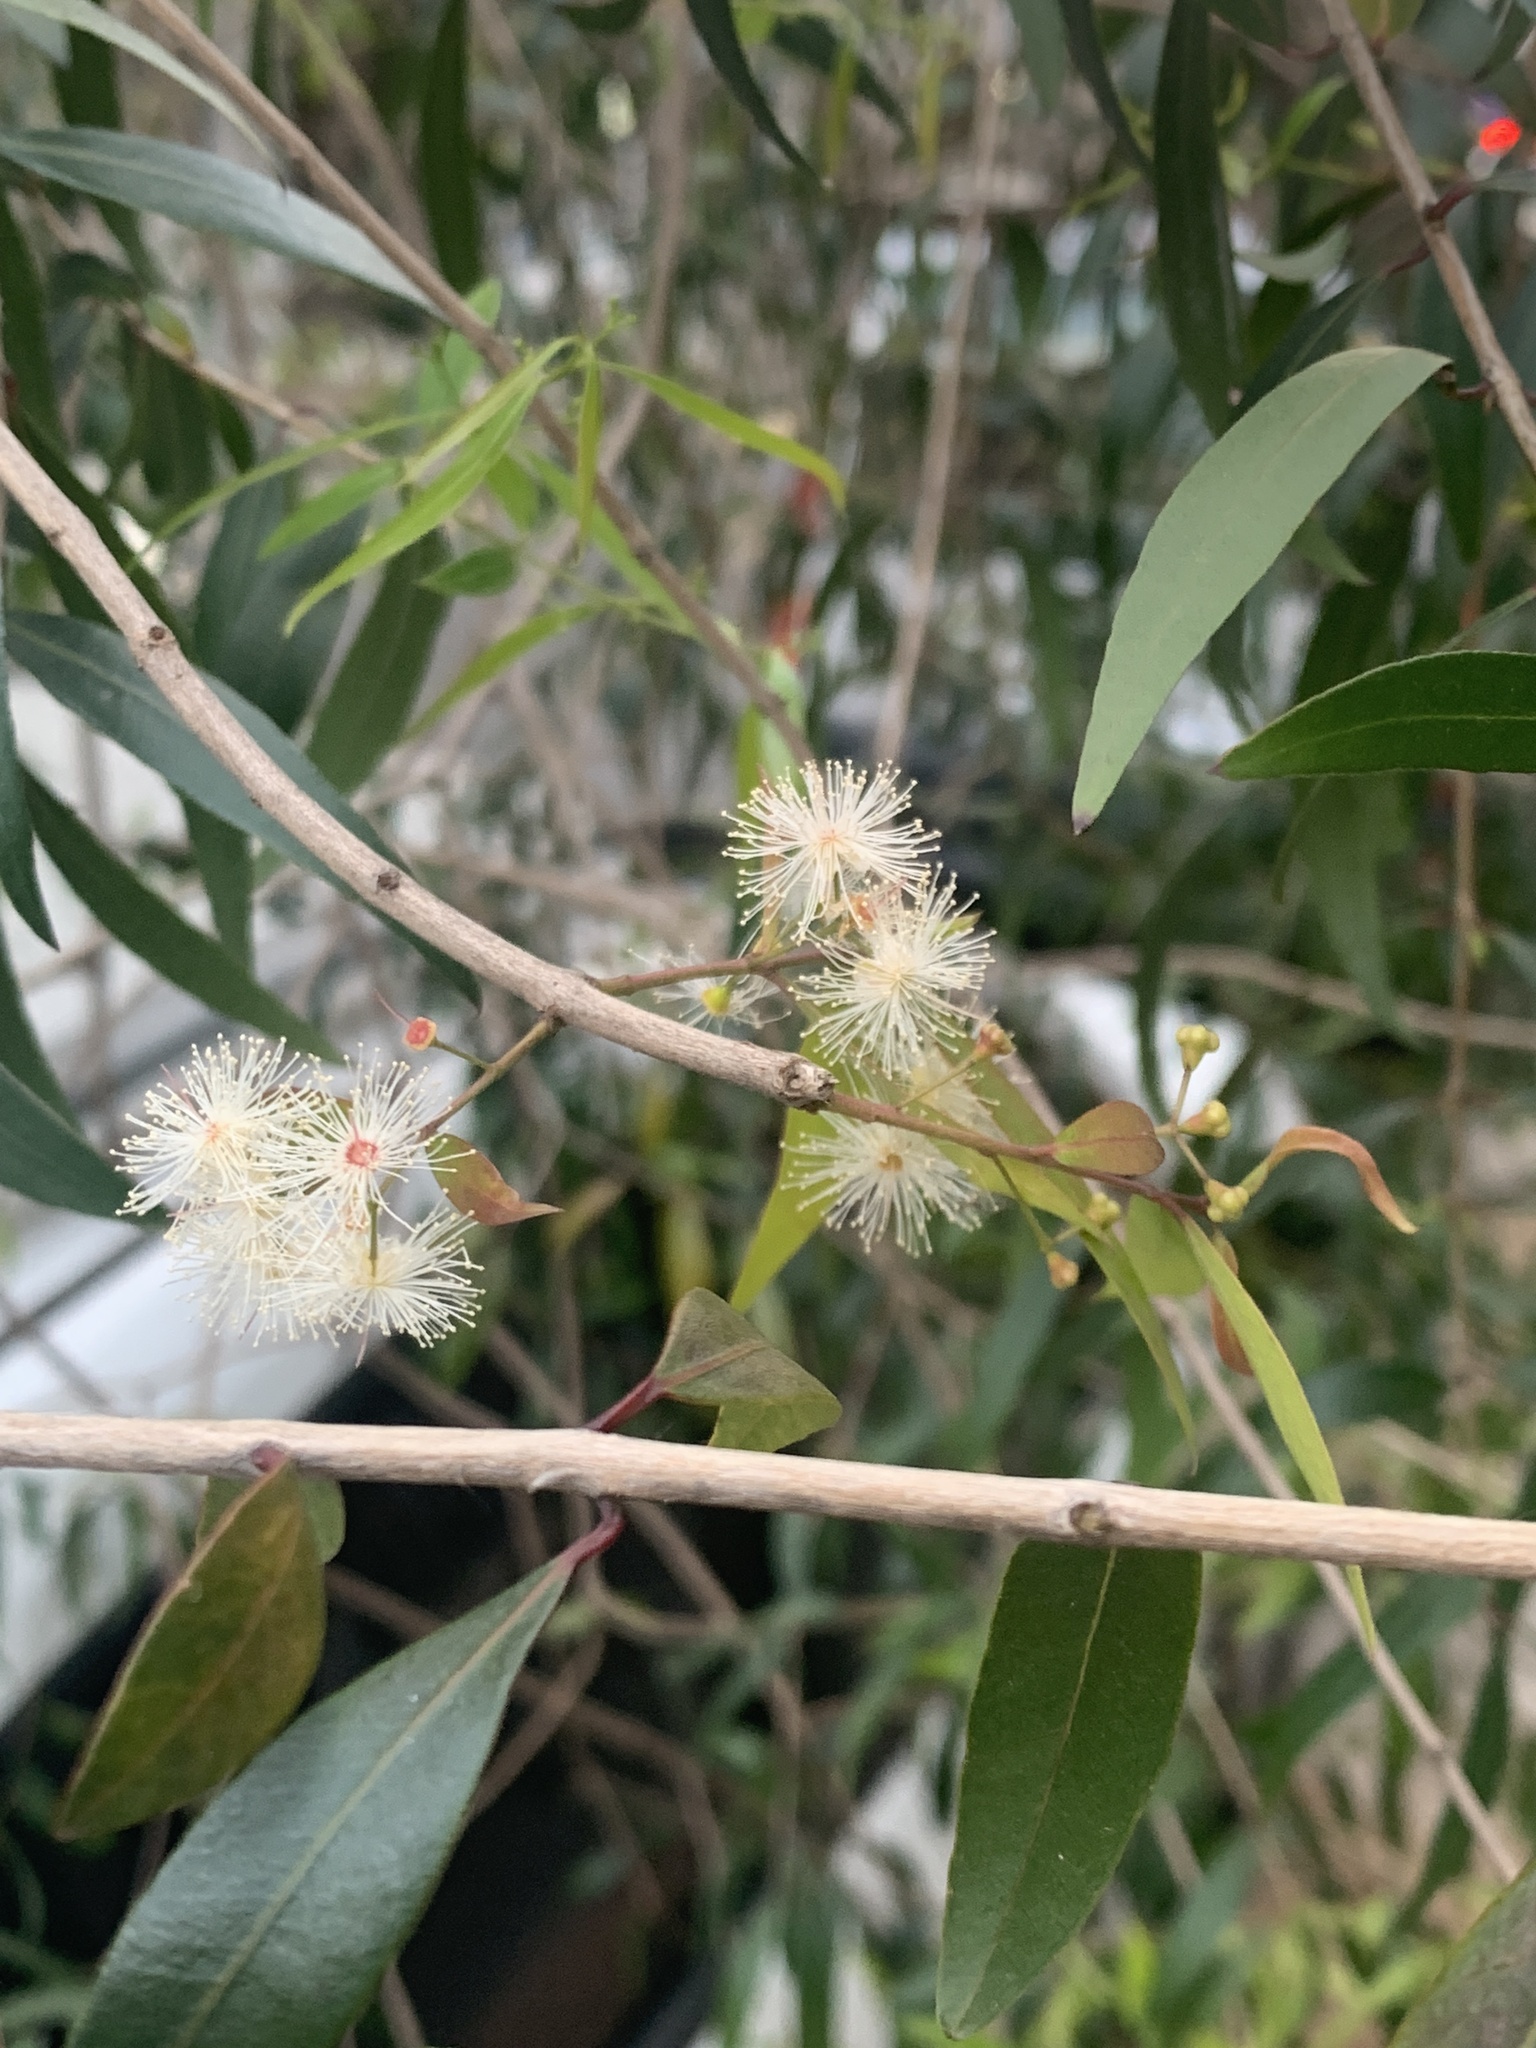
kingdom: Plantae
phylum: Tracheophyta
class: Magnoliopsida
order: Myrtales
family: Myrtaceae
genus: Blepharocalyx
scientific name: Blepharocalyx salicifolius
